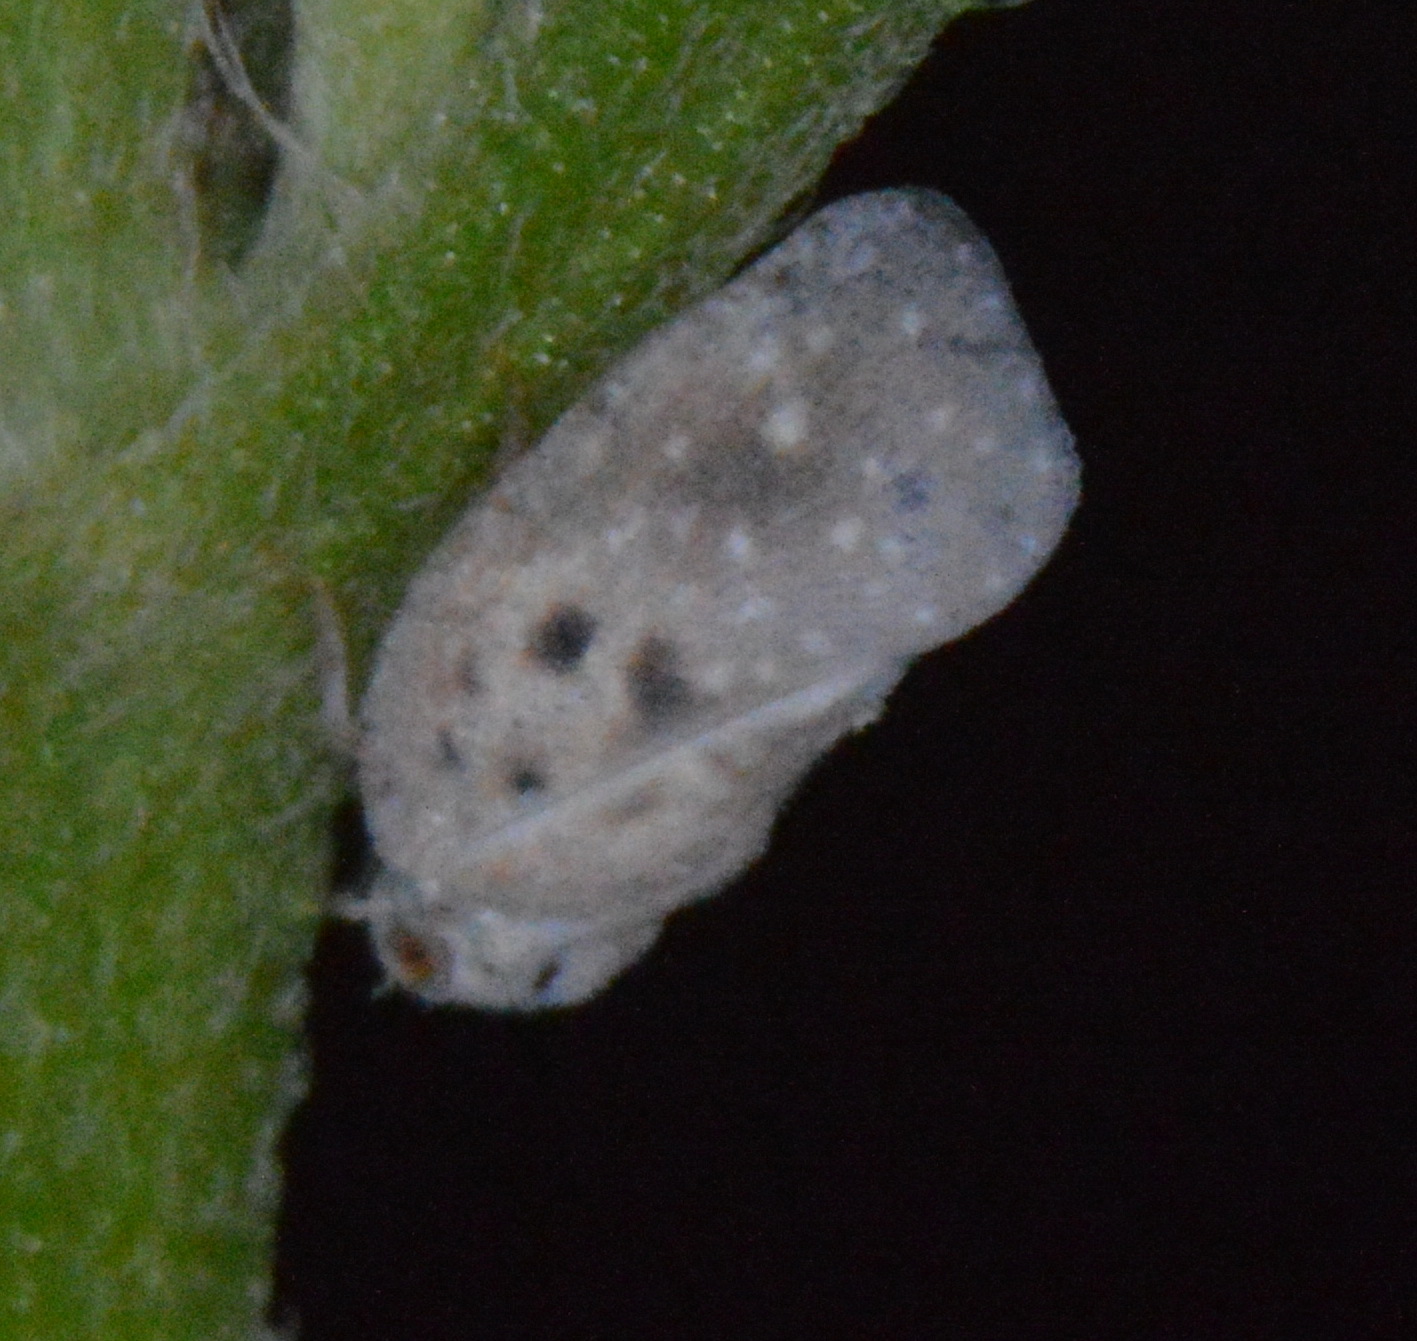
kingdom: Animalia
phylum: Arthropoda
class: Insecta
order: Hemiptera
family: Flatidae
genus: Metcalfa
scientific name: Metcalfa pruinosa
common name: Citrus flatid planthopper
